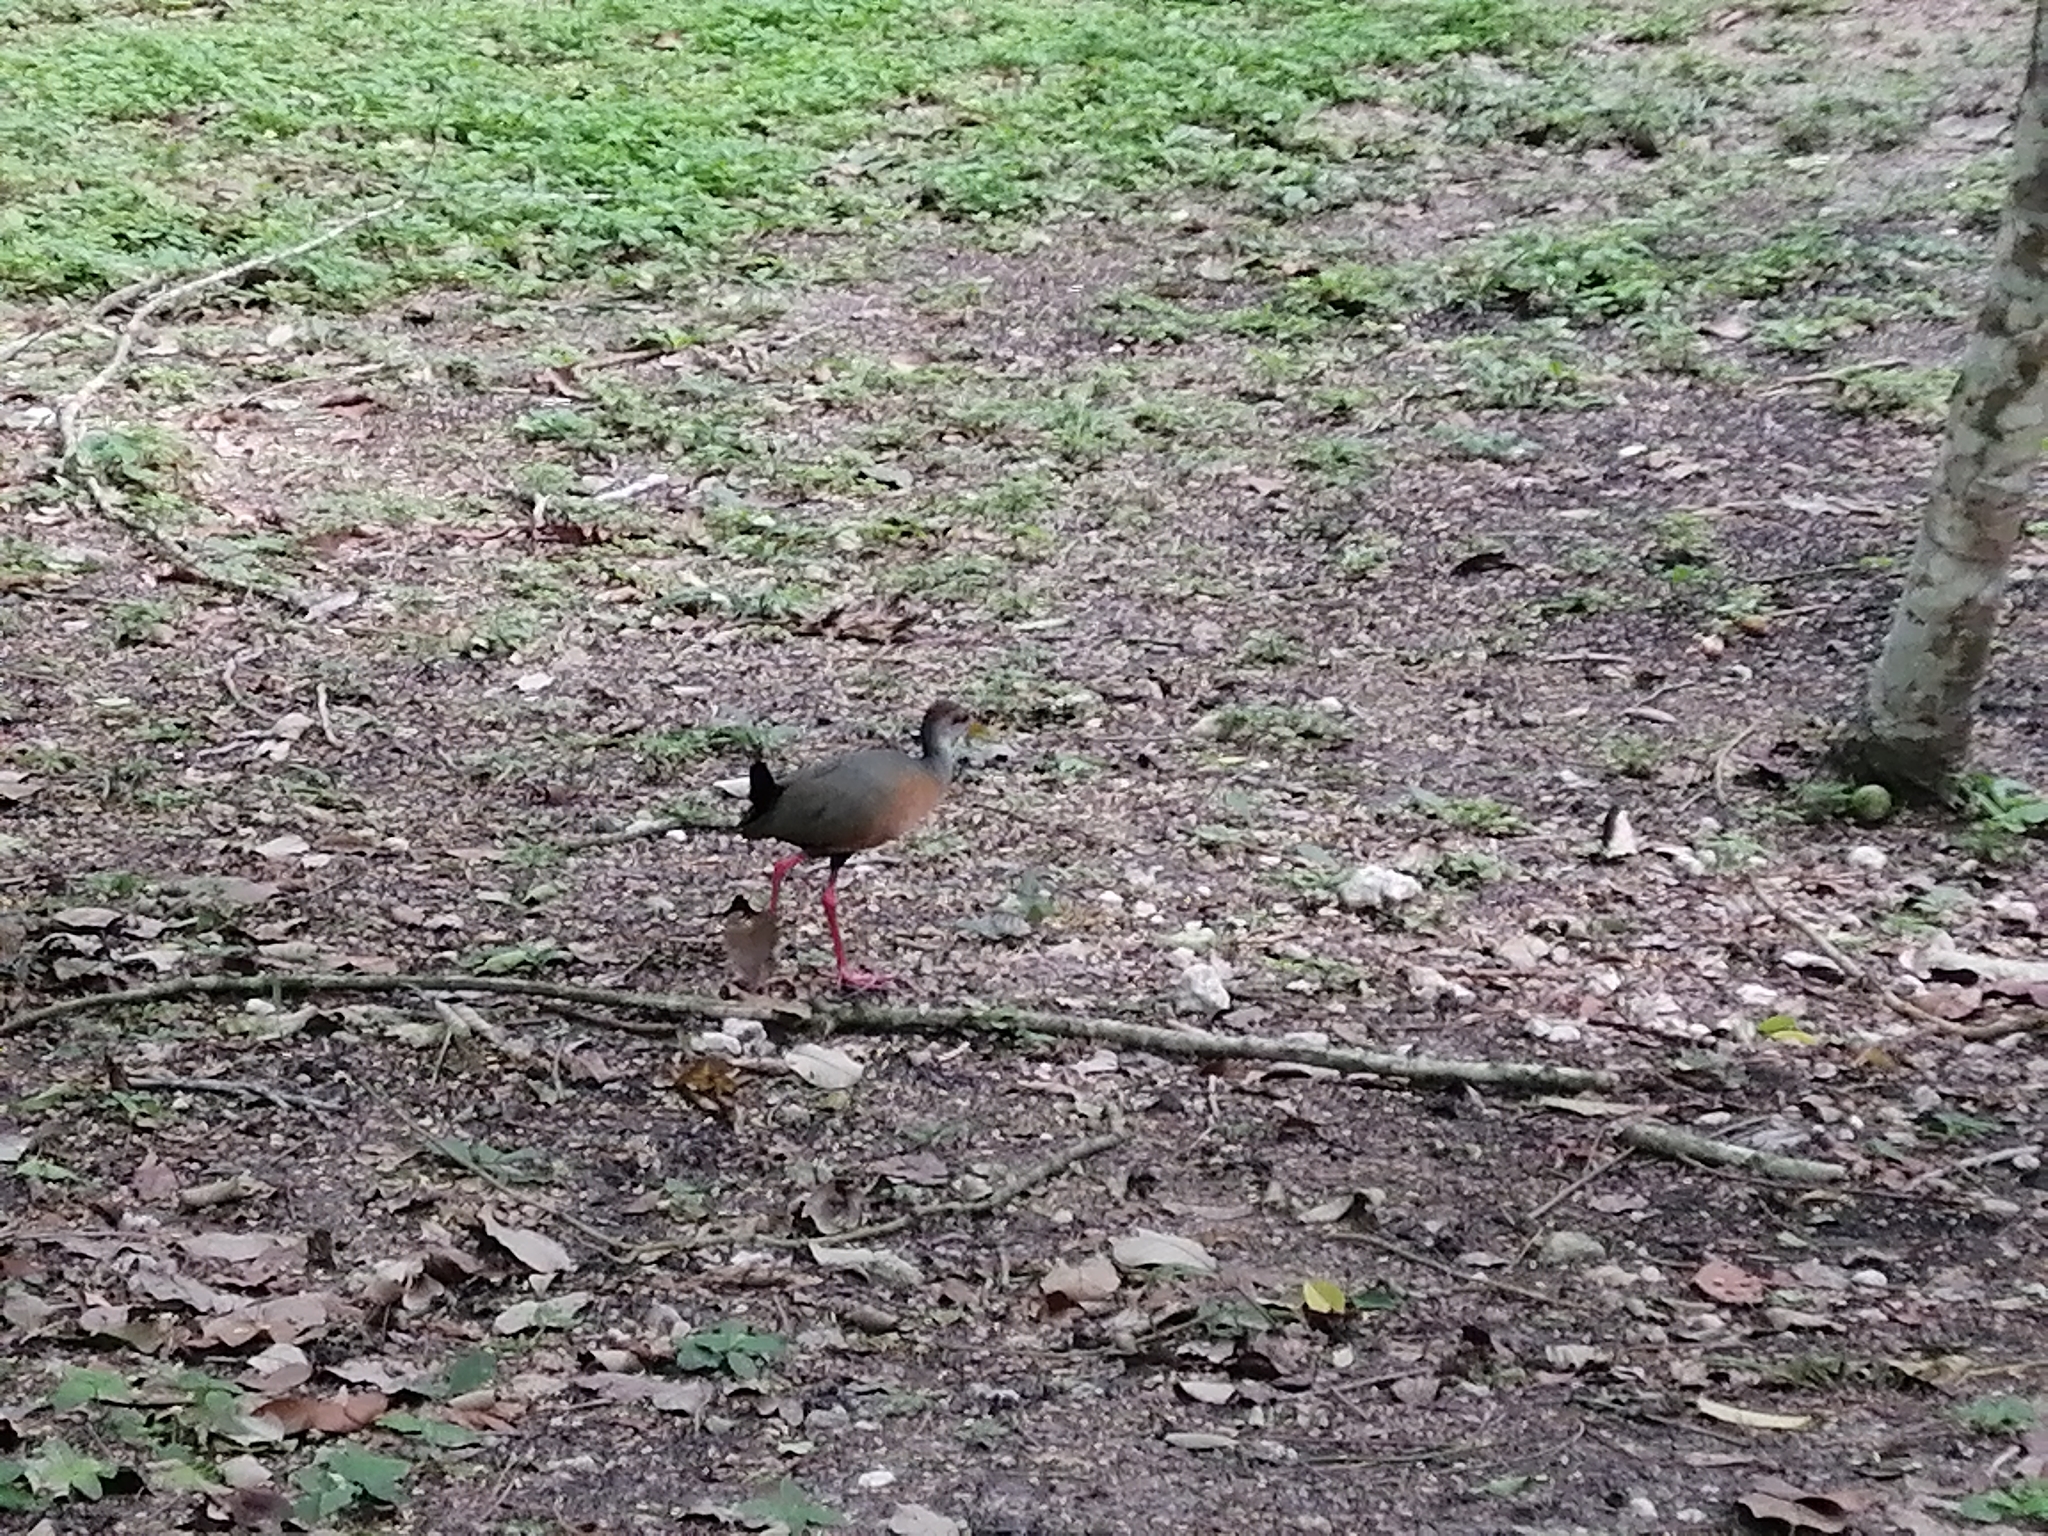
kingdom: Animalia
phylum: Chordata
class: Aves
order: Gruiformes
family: Rallidae
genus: Aramides
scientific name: Aramides albiventris
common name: Russet-naped wood-rail
